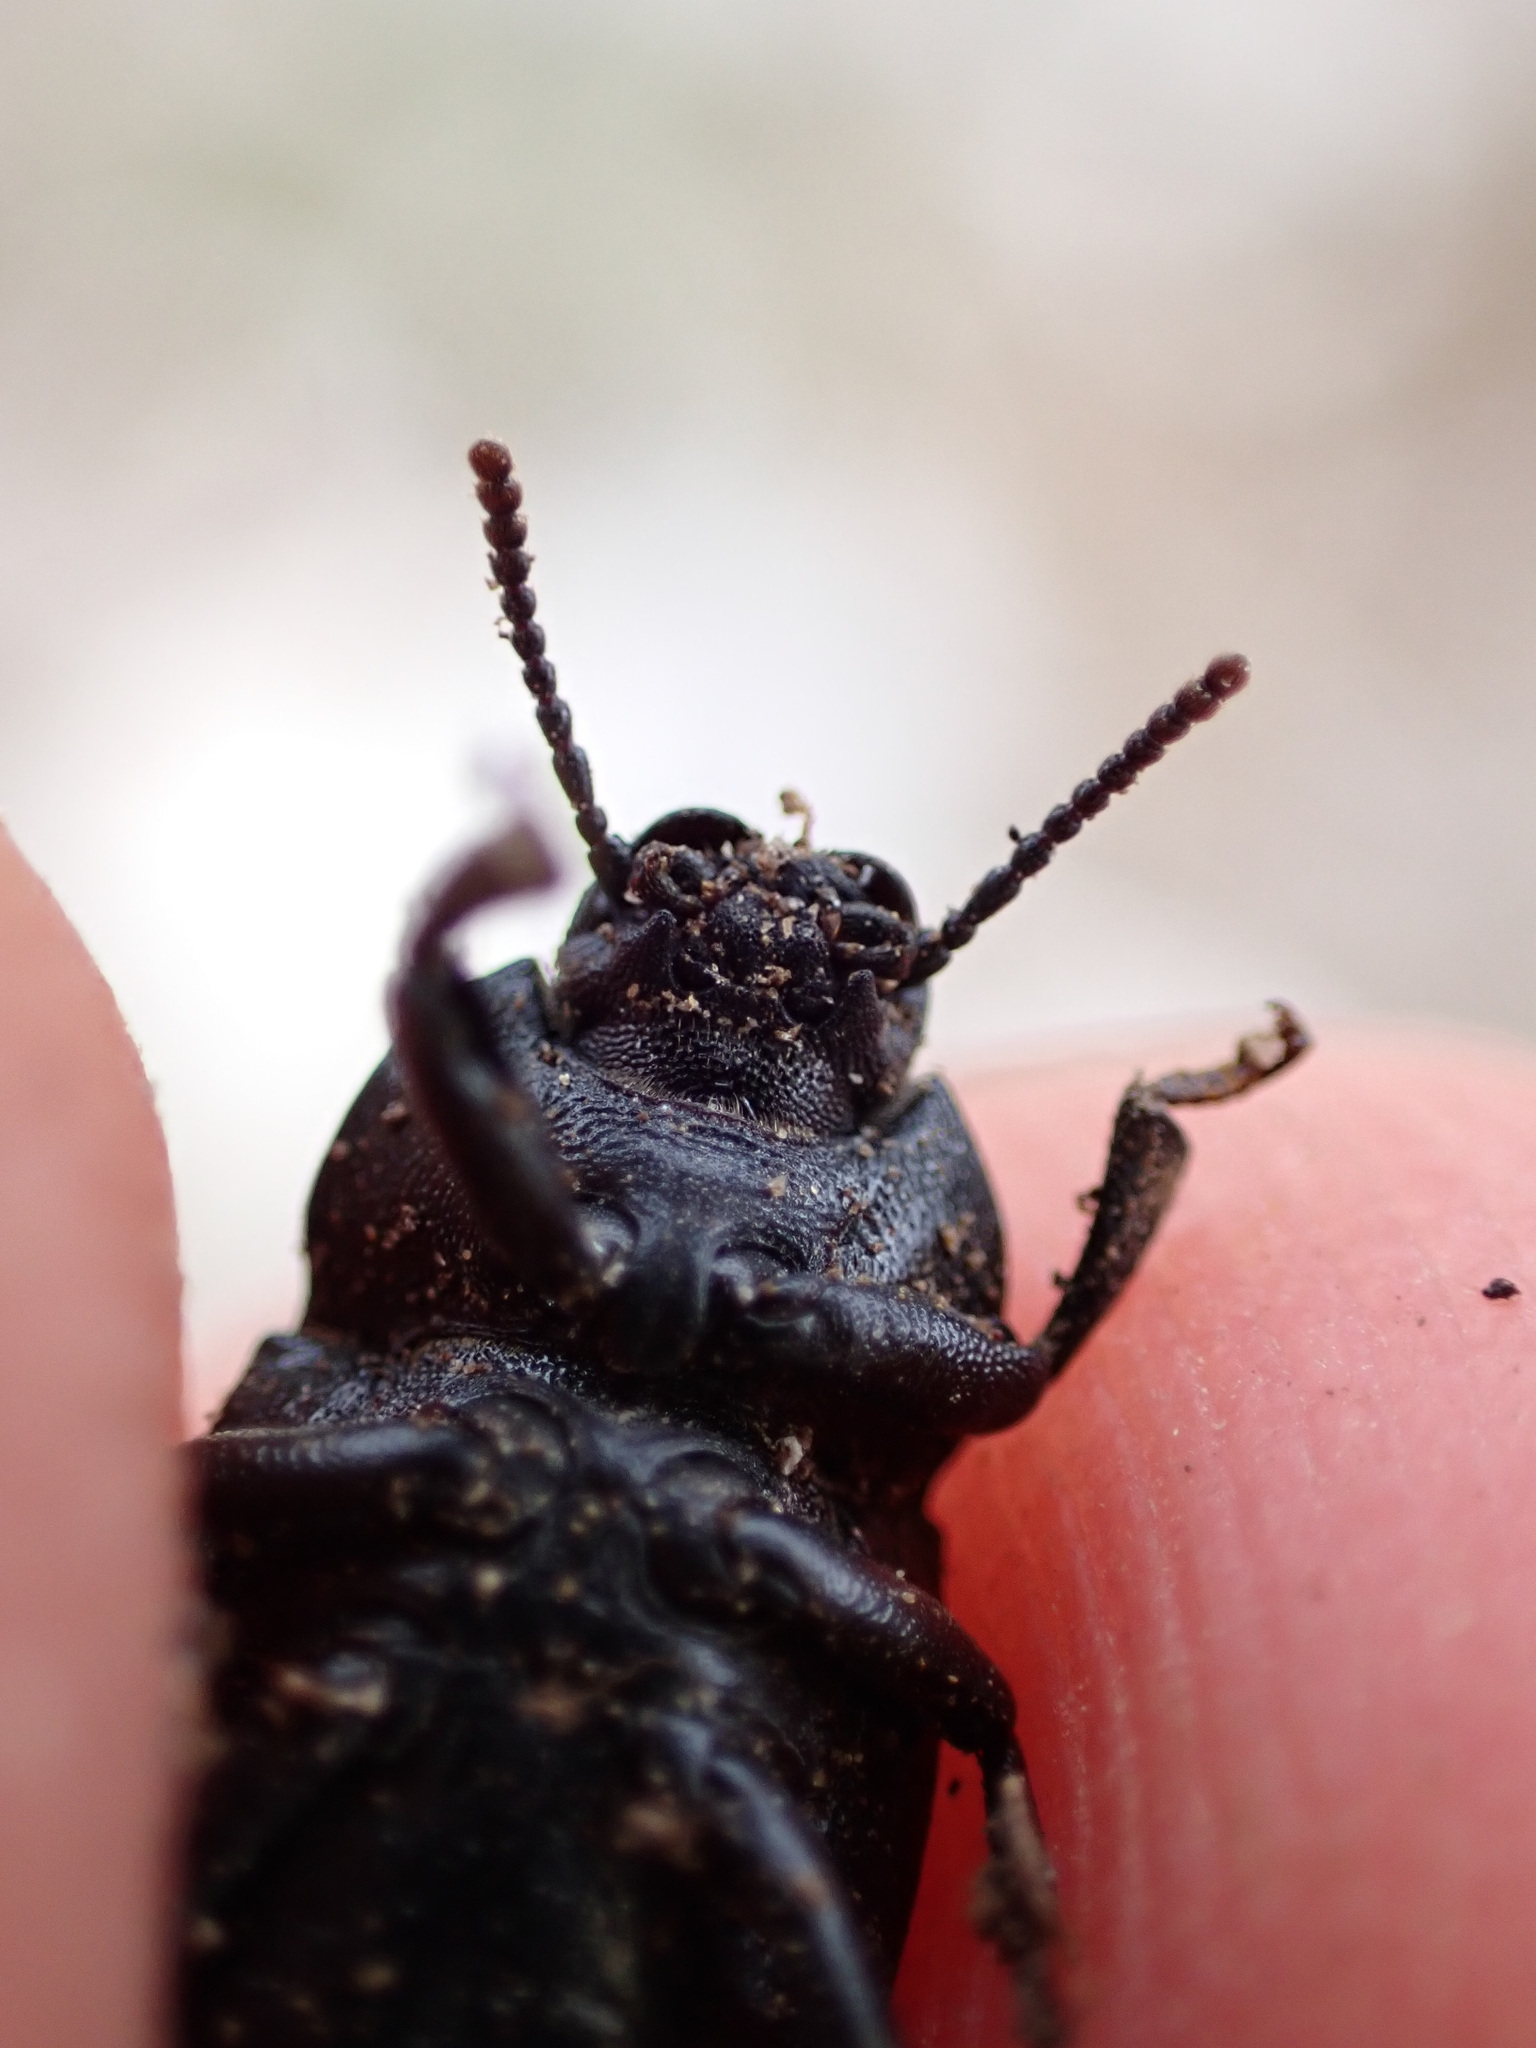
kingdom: Animalia
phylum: Arthropoda
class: Insecta
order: Coleoptera
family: Tenebrionidae
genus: Bioplanes
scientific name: Bioplanes meridionalis
